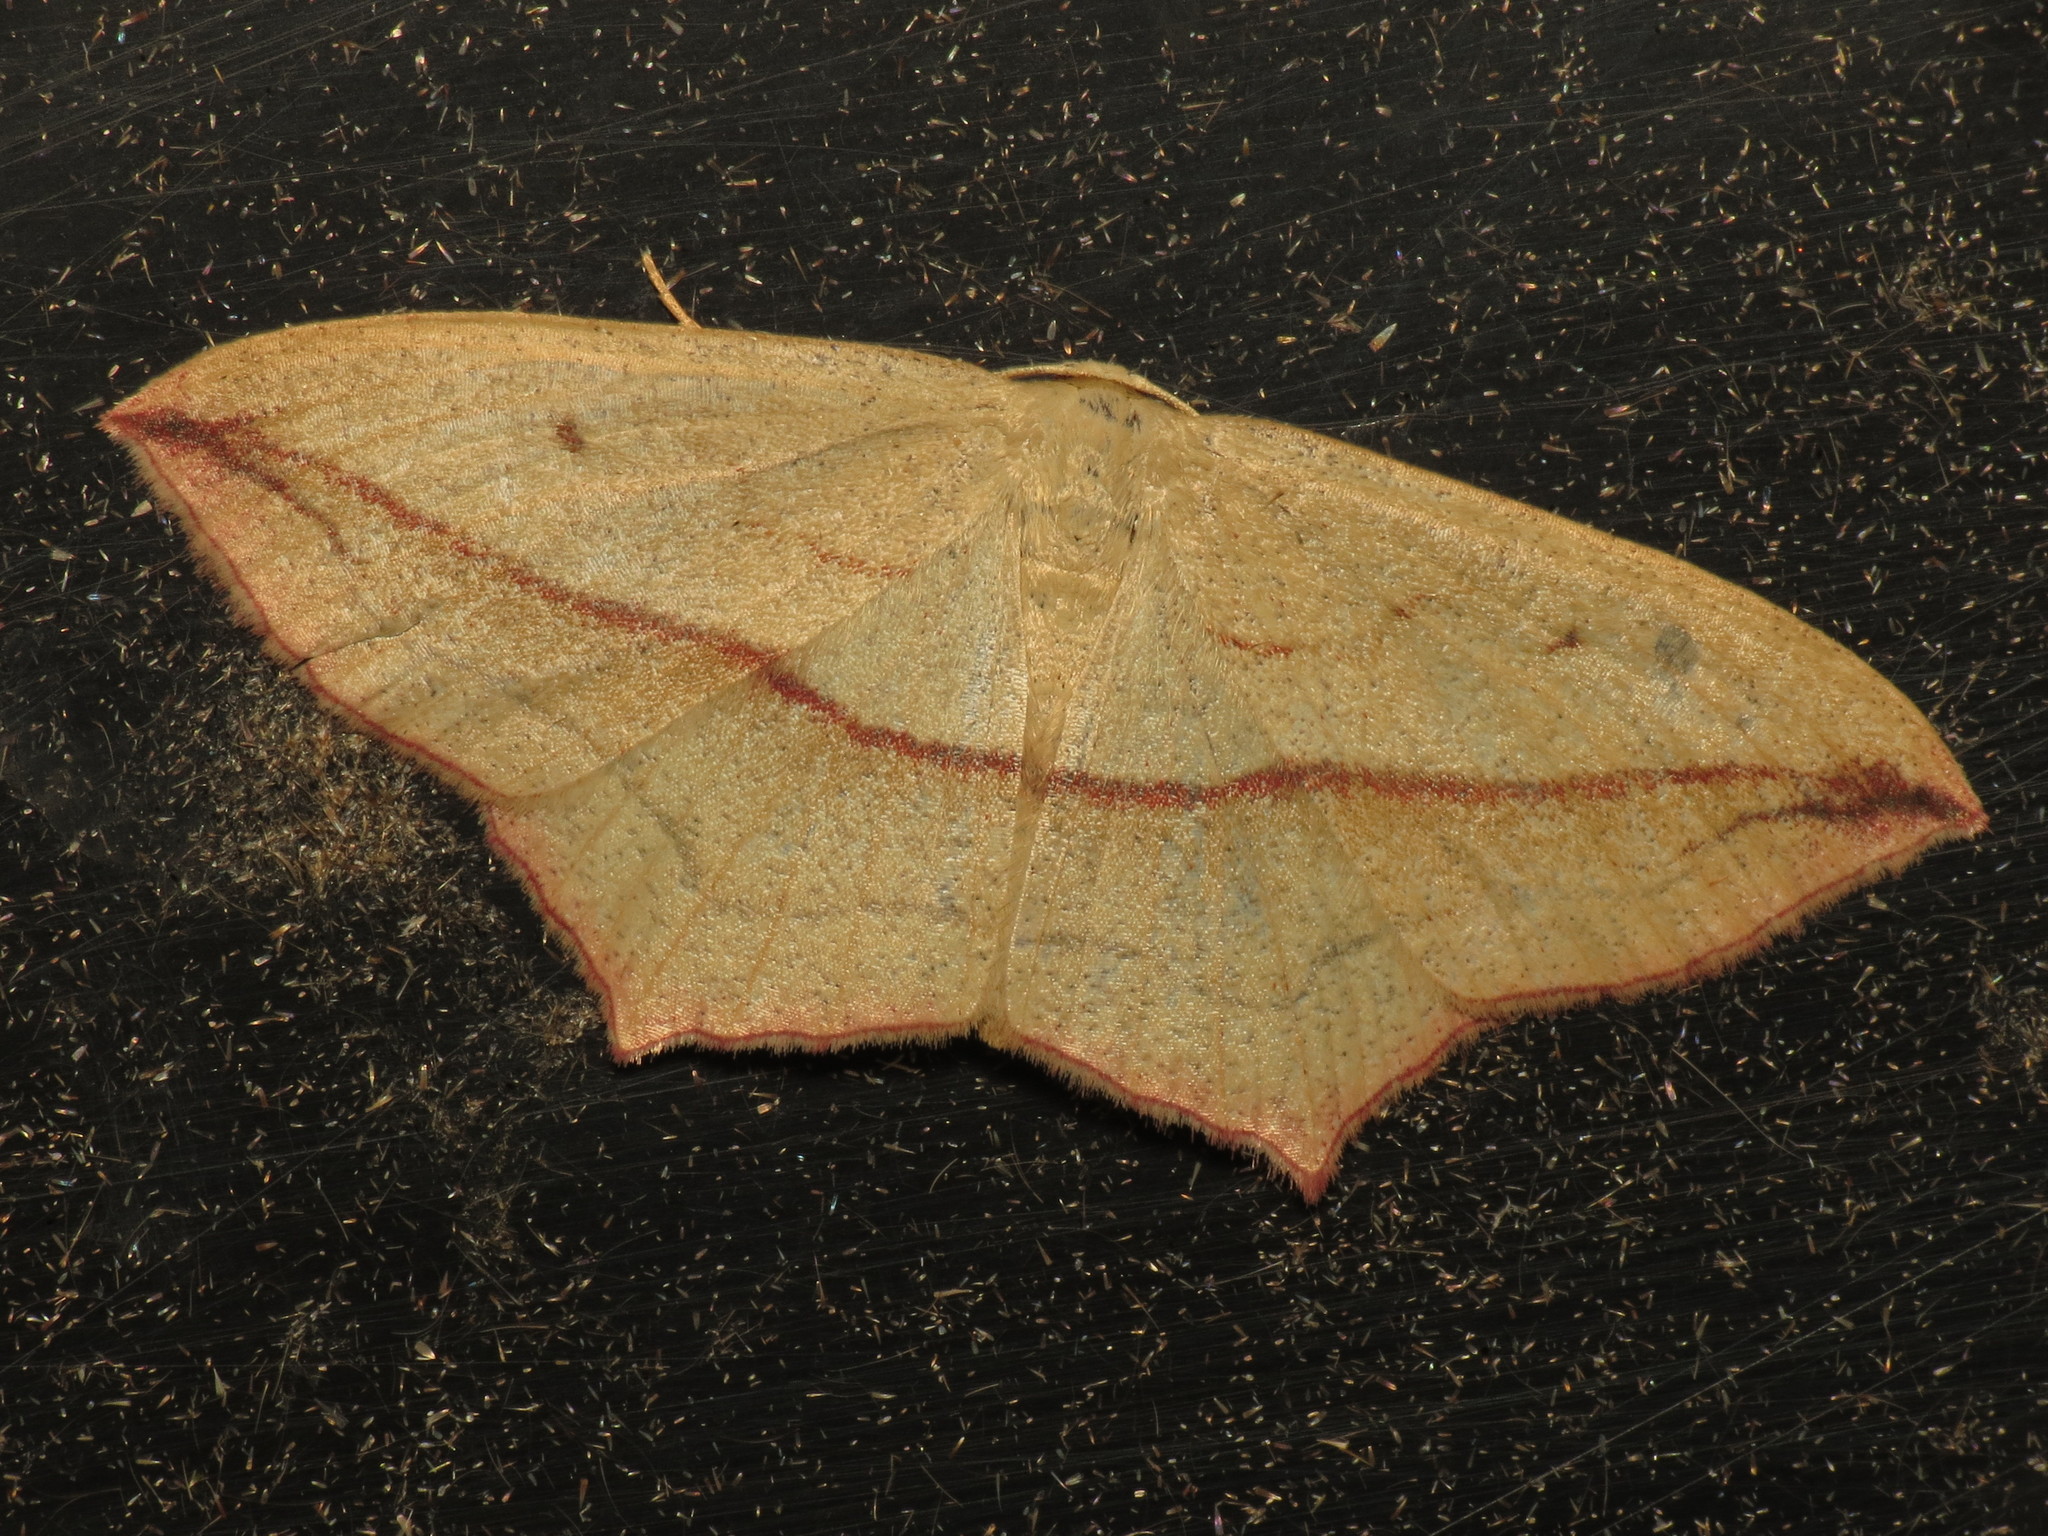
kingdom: Animalia
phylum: Arthropoda
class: Insecta
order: Lepidoptera
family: Geometridae
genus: Timandra
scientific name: Timandra comae
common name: Blood-vein
